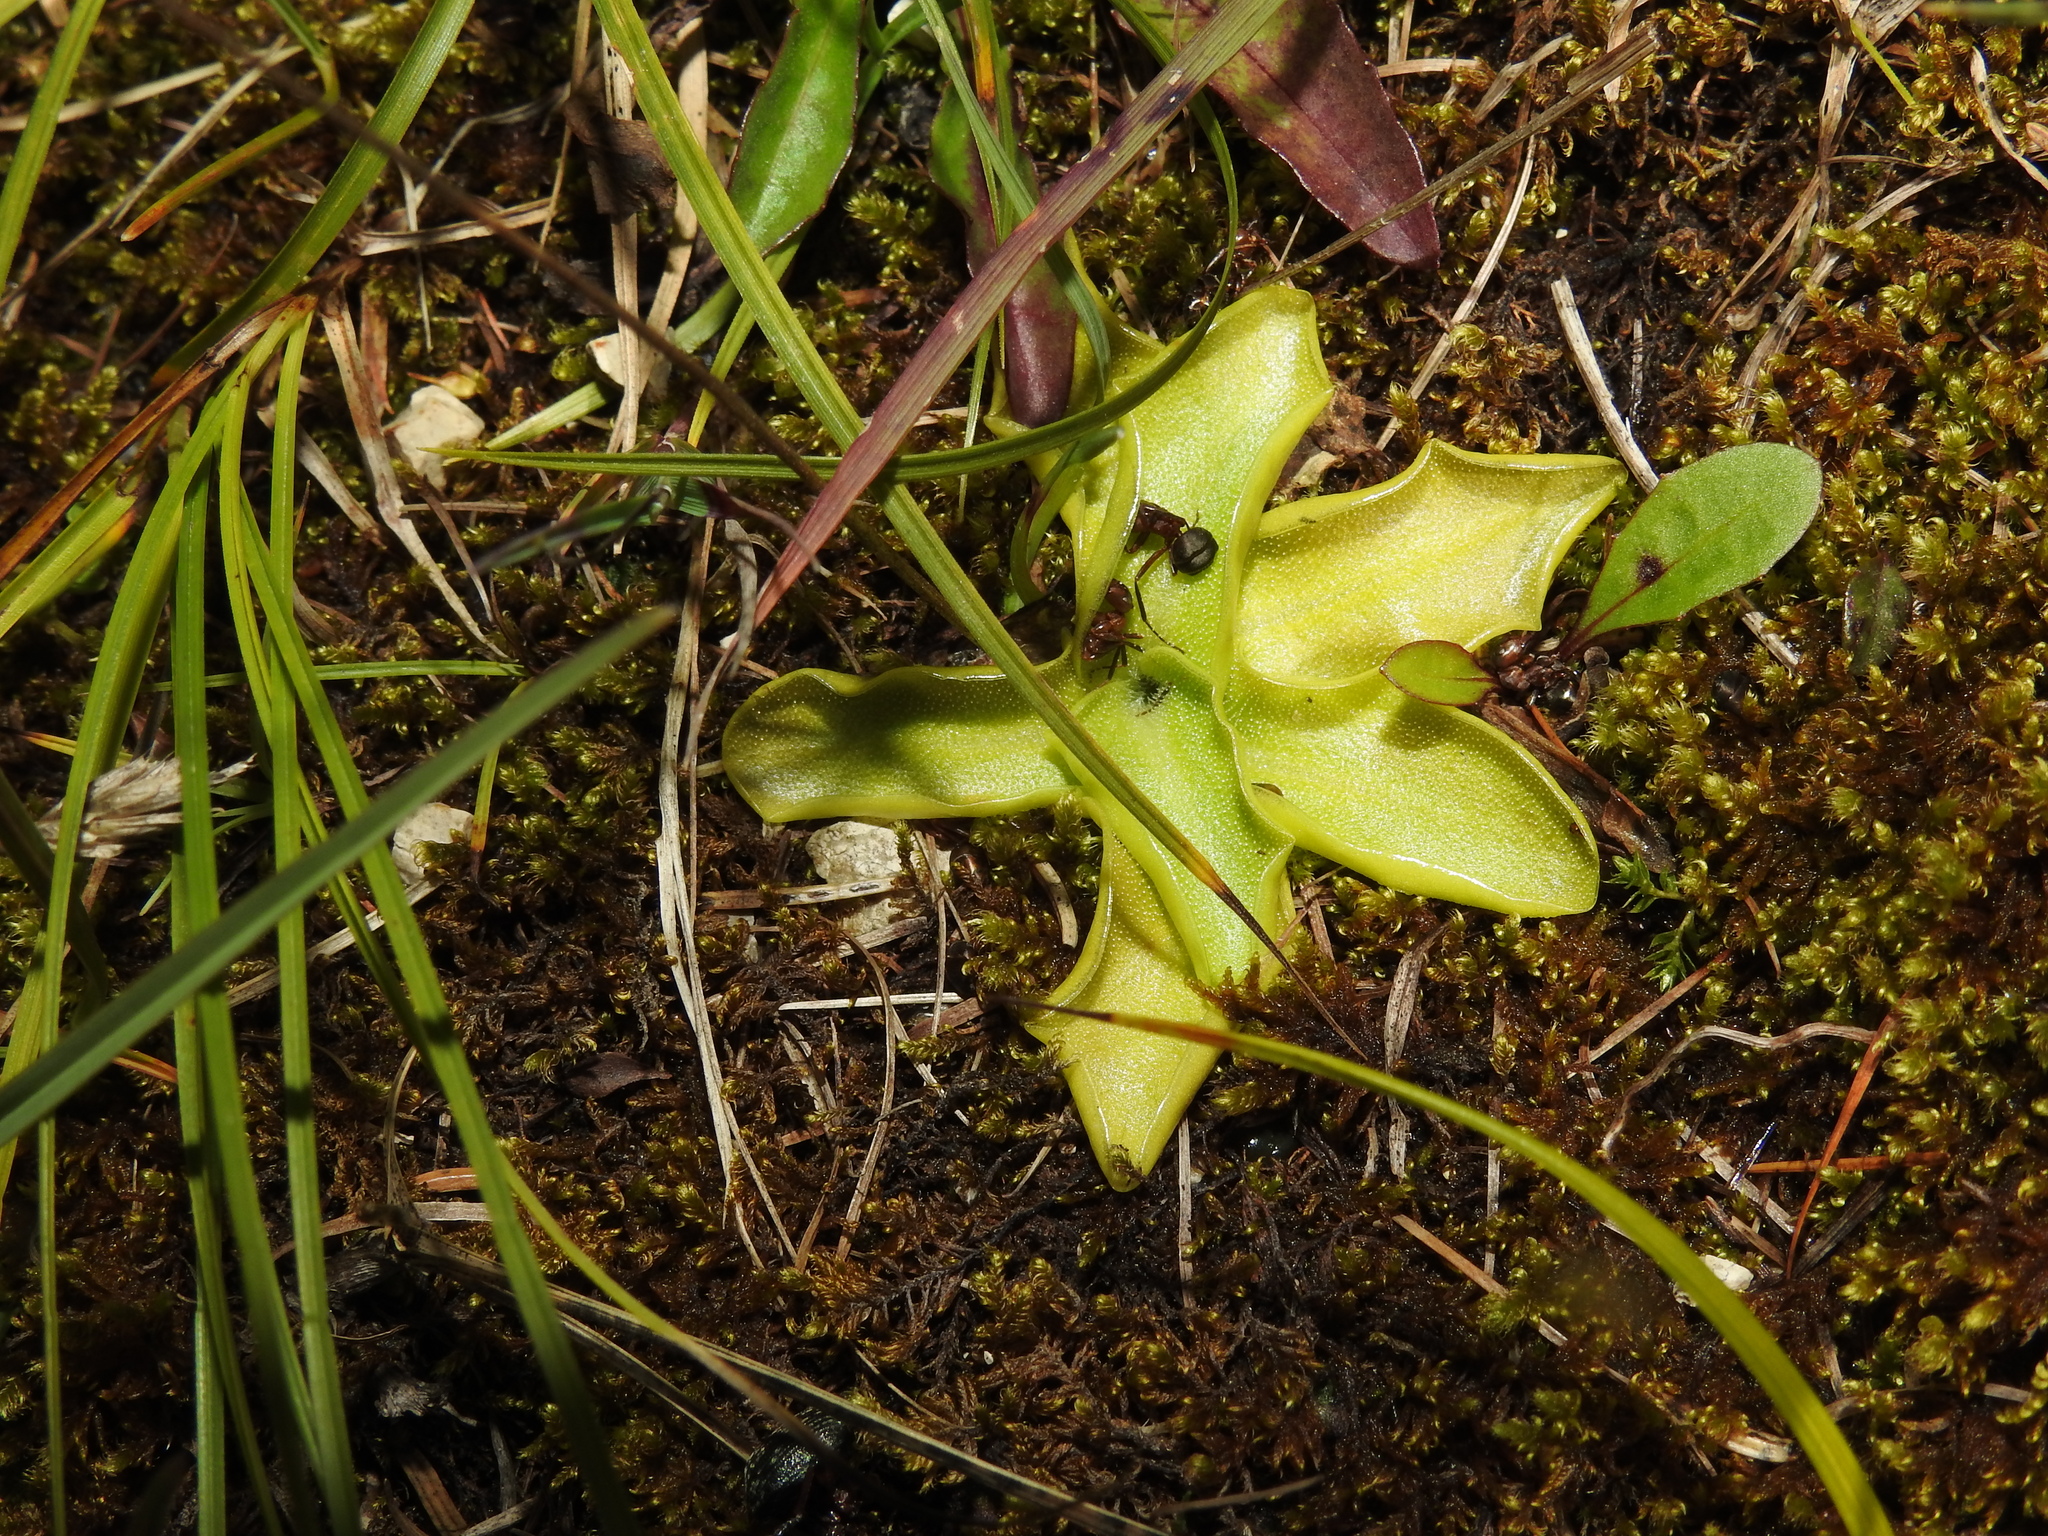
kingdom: Plantae
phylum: Tracheophyta
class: Magnoliopsida
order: Lamiales
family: Lentibulariaceae
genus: Pinguicula
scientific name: Pinguicula vulgaris
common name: Common butterwort
